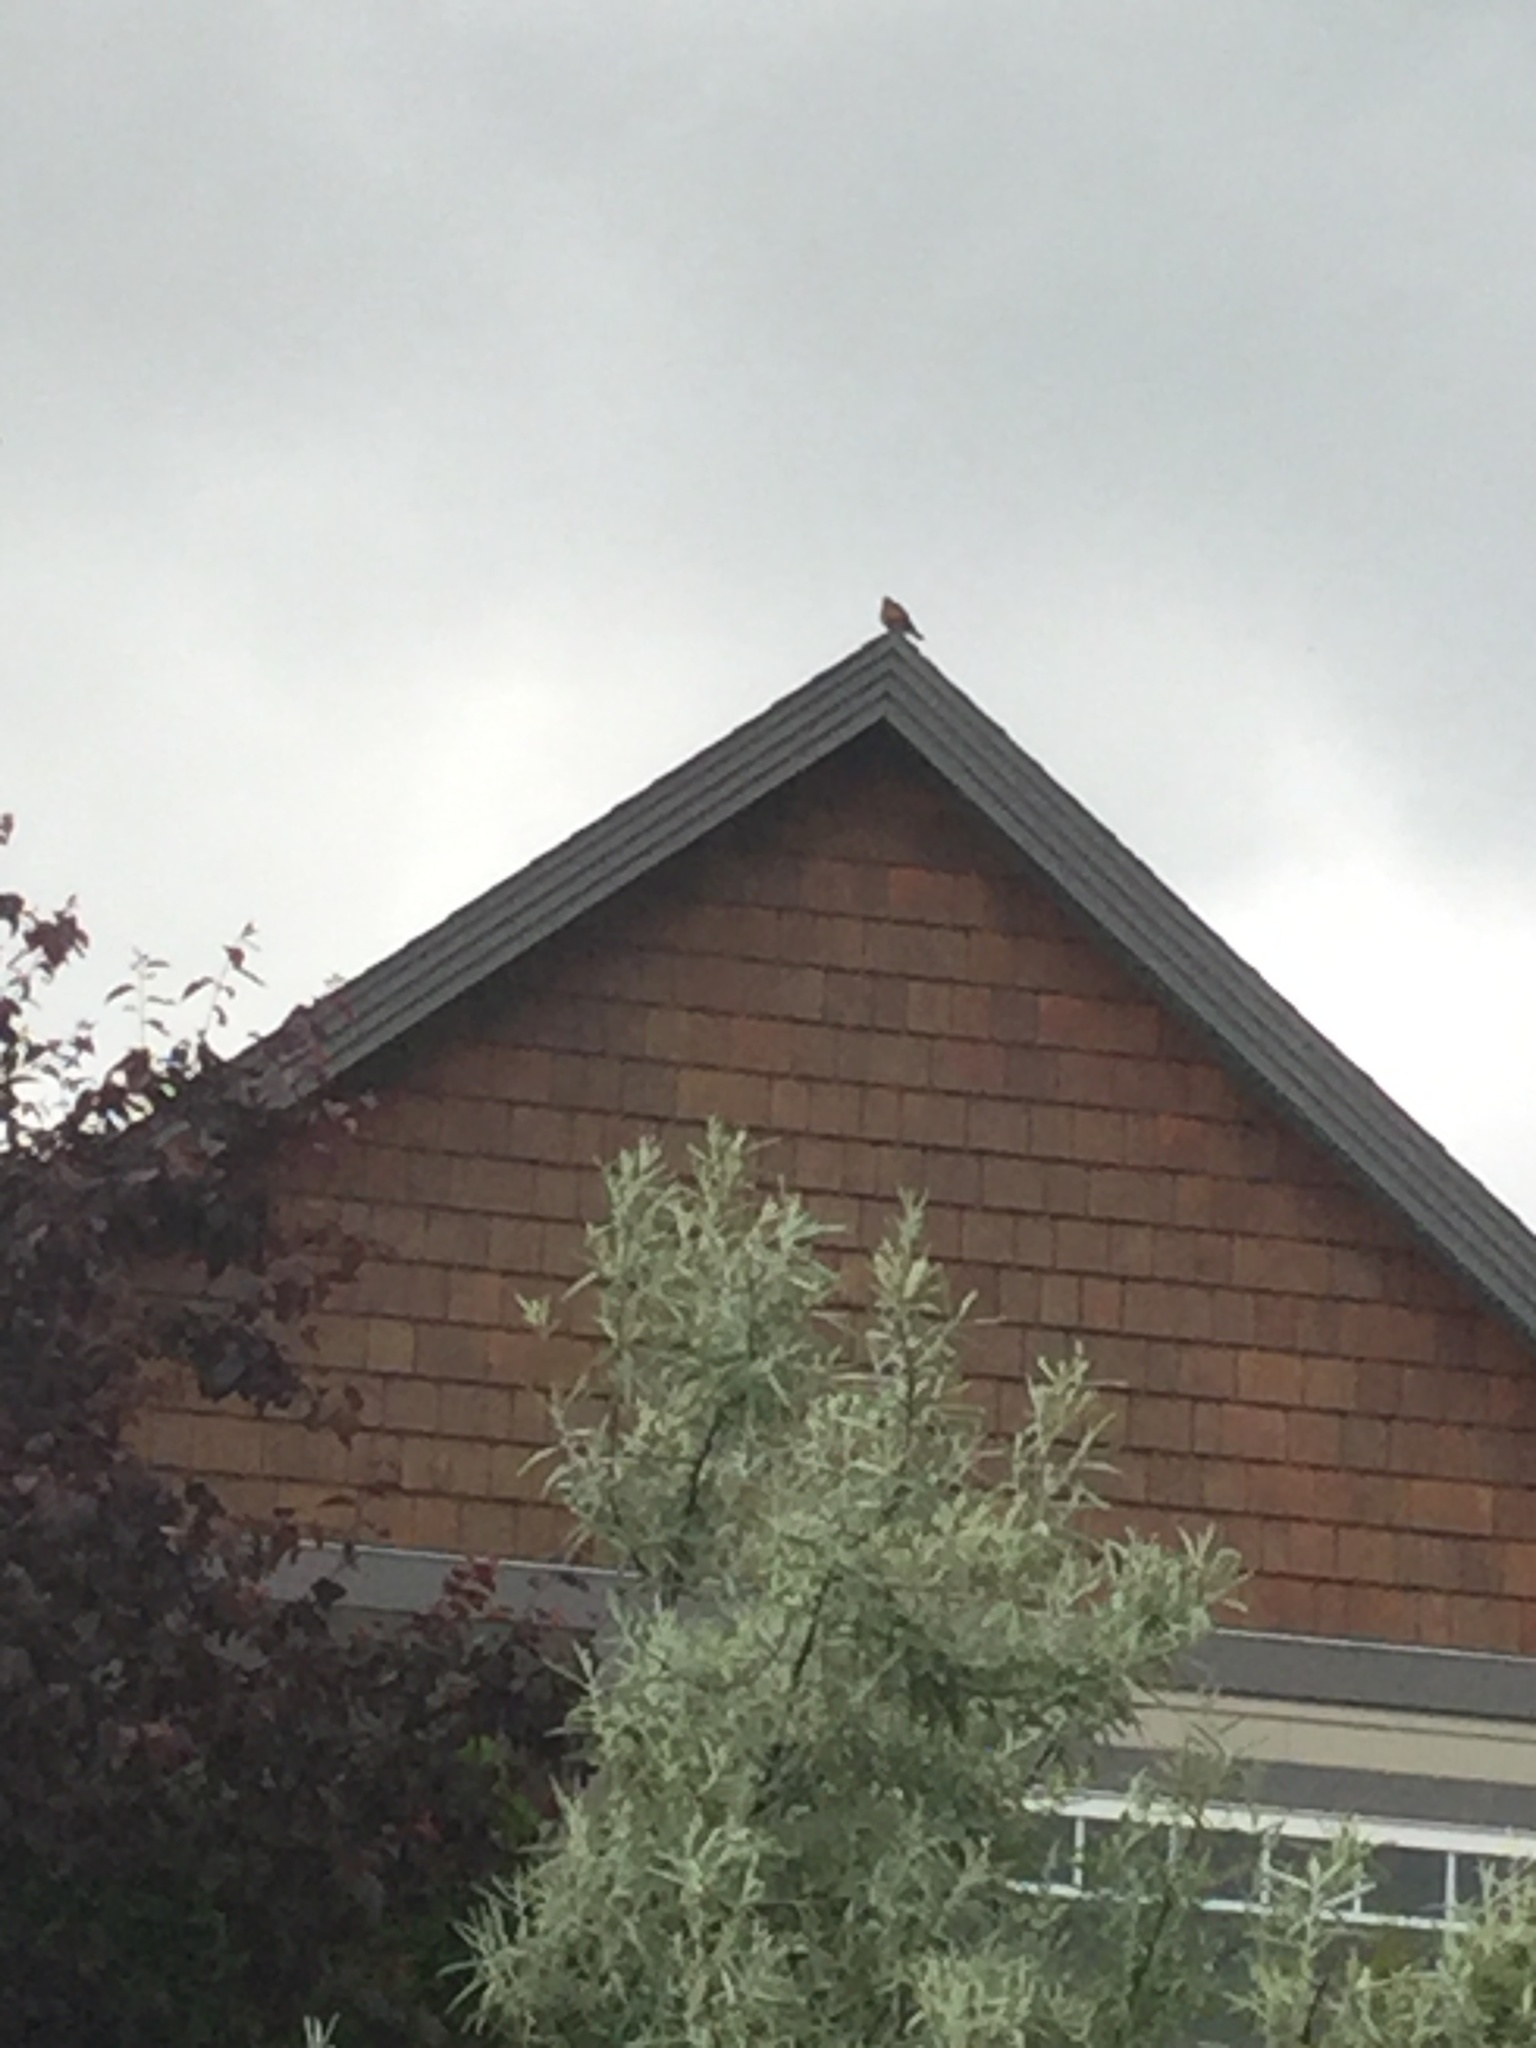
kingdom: Animalia
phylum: Chordata
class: Aves
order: Passeriformes
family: Turdidae
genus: Turdus
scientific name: Turdus migratorius
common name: American robin
